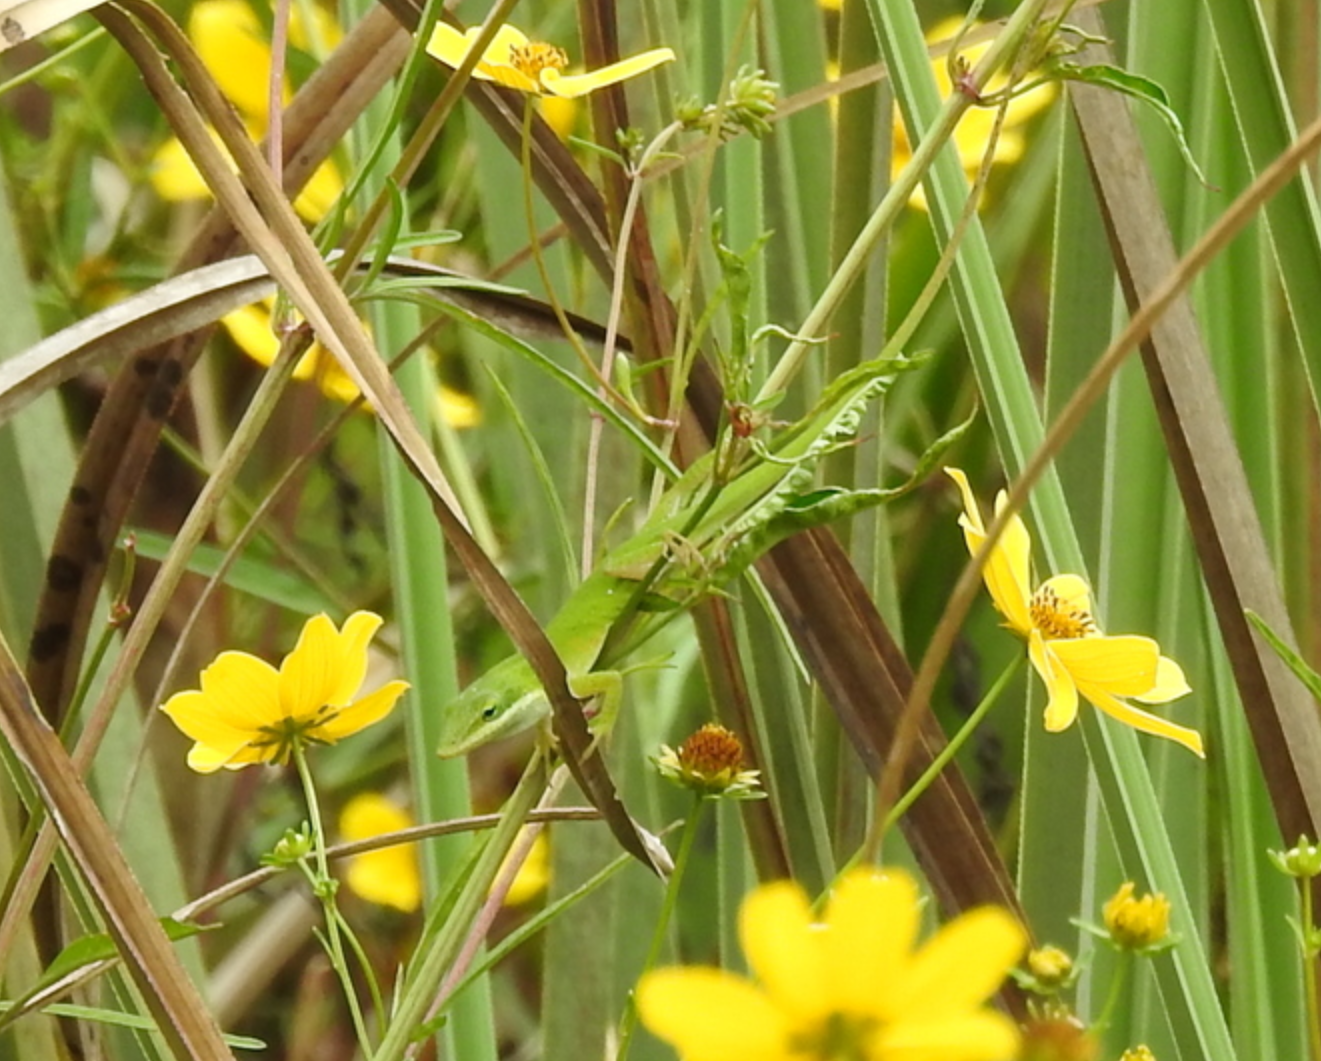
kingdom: Animalia
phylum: Chordata
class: Squamata
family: Dactyloidae
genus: Anolis
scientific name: Anolis carolinensis
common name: Green anole
